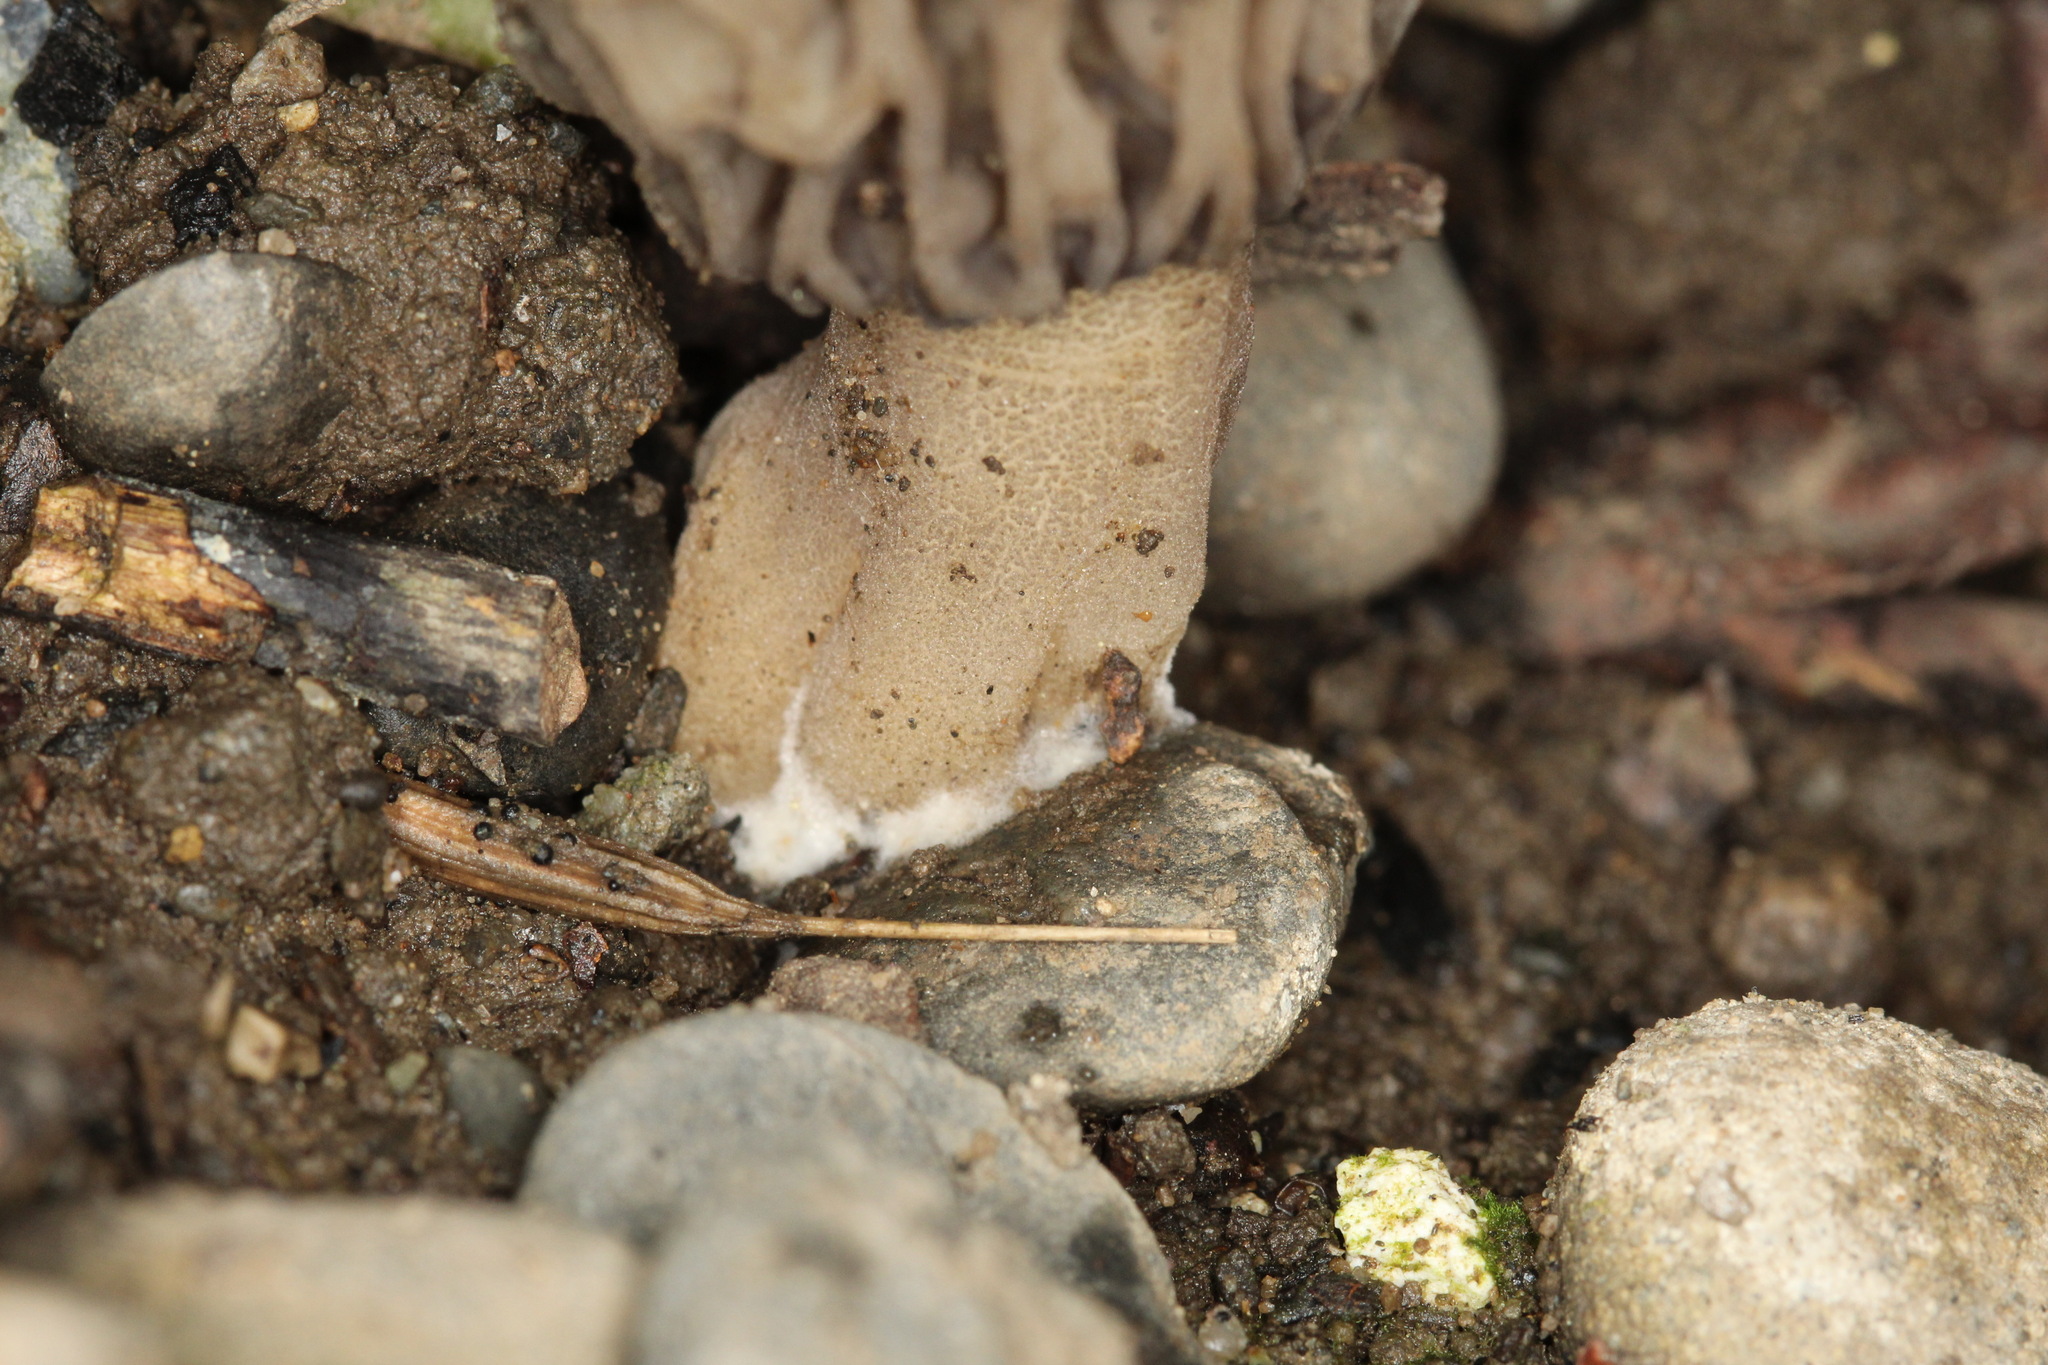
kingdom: Fungi
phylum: Ascomycota
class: Pezizomycetes
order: Pezizales
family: Morchellaceae
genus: Morchella
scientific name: Morchella rufobrunnea
